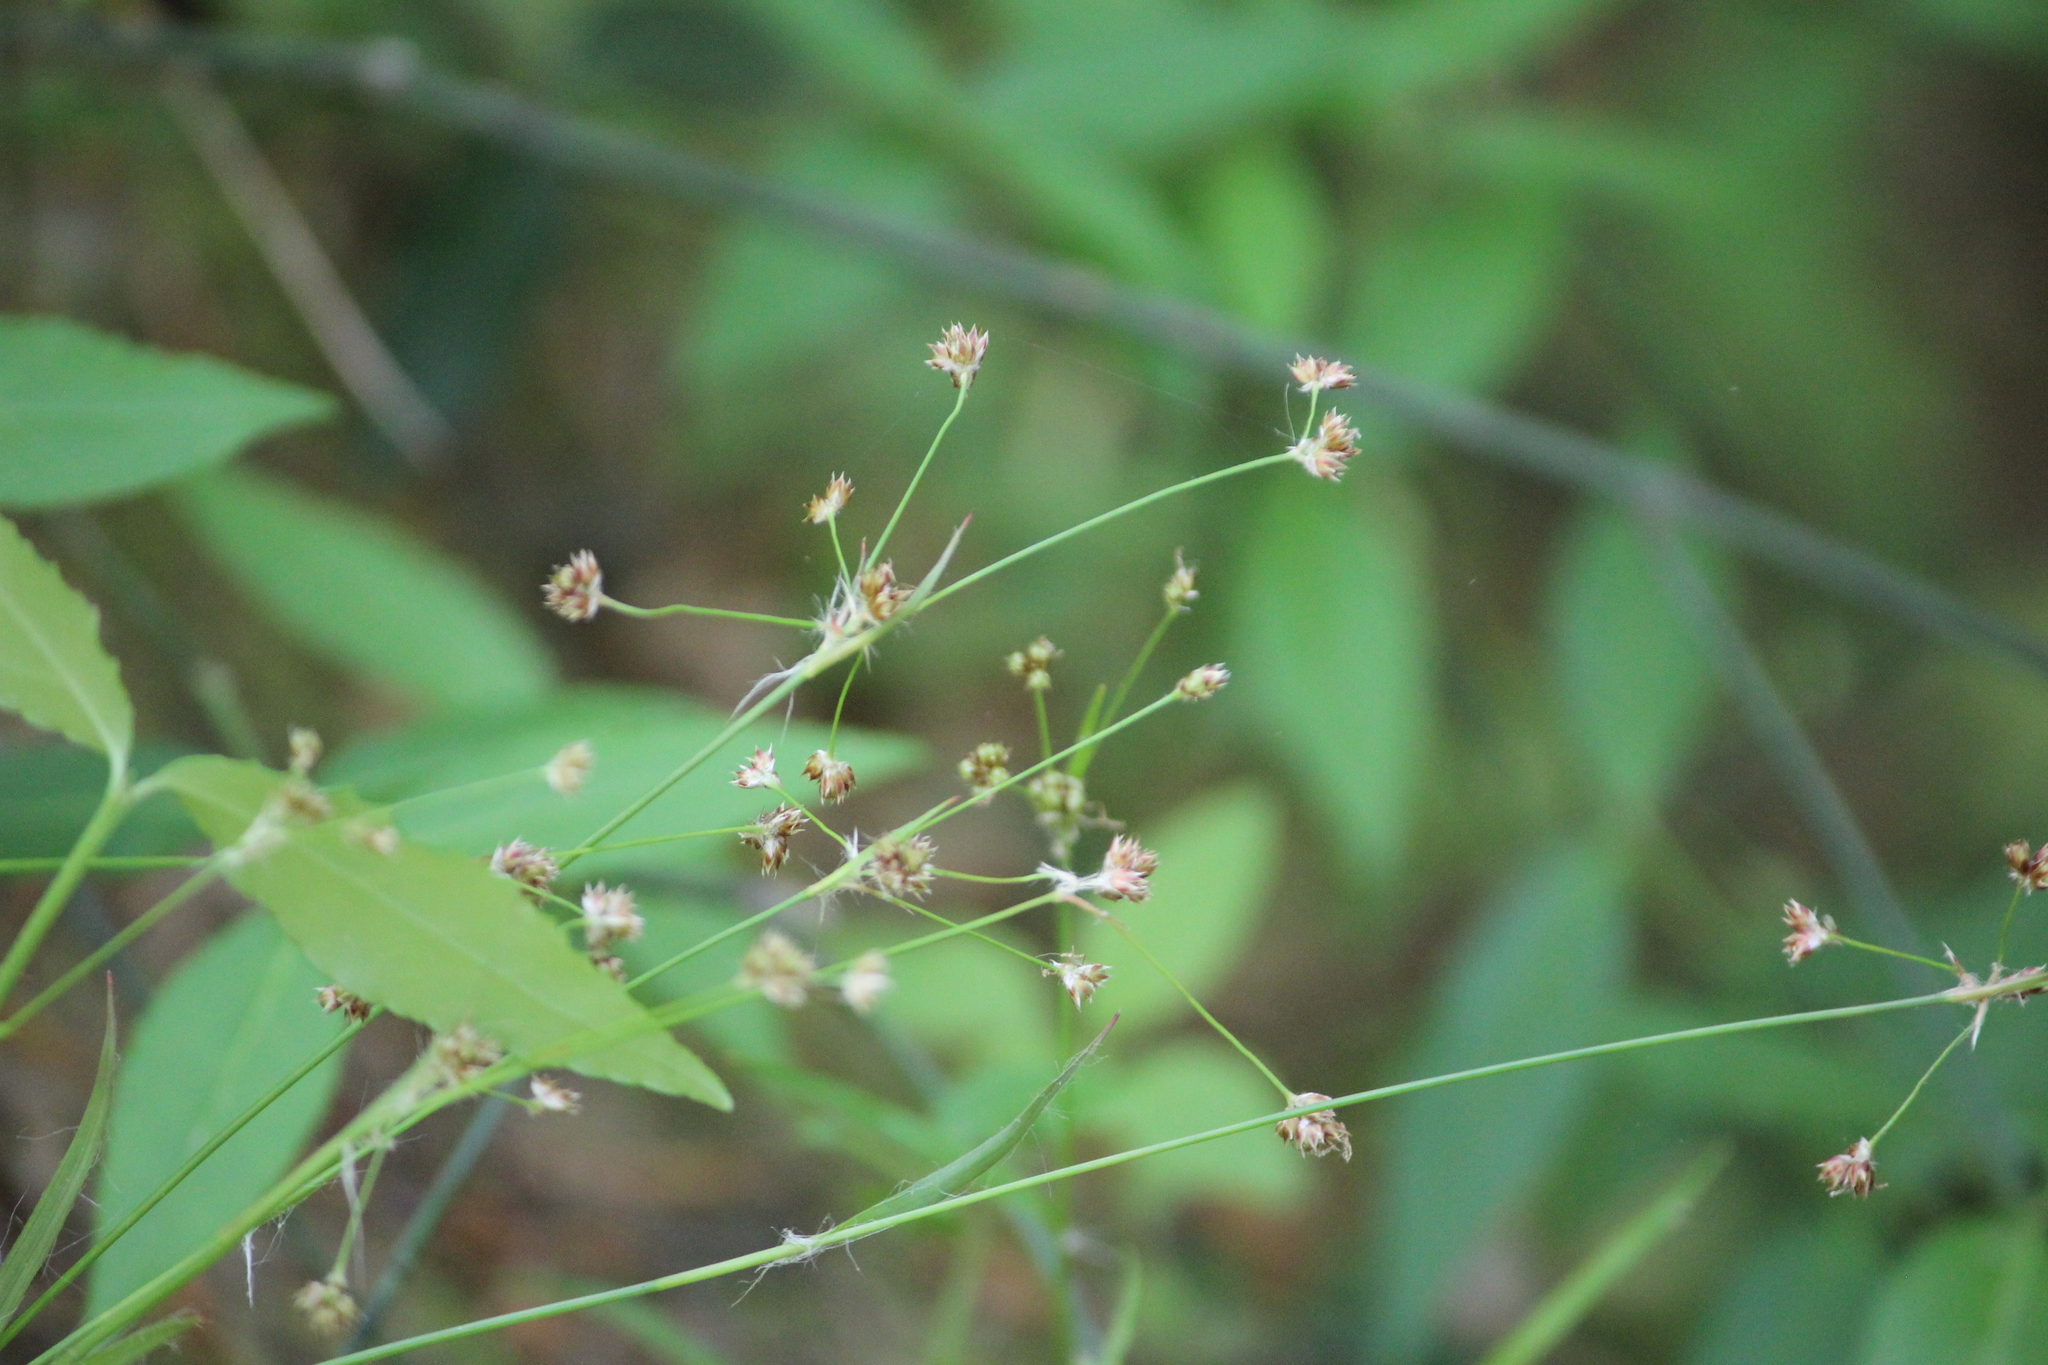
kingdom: Plantae
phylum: Tracheophyta
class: Liliopsida
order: Poales
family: Juncaceae
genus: Luzula
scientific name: Luzula echinata
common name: Hedgehog woodrush
